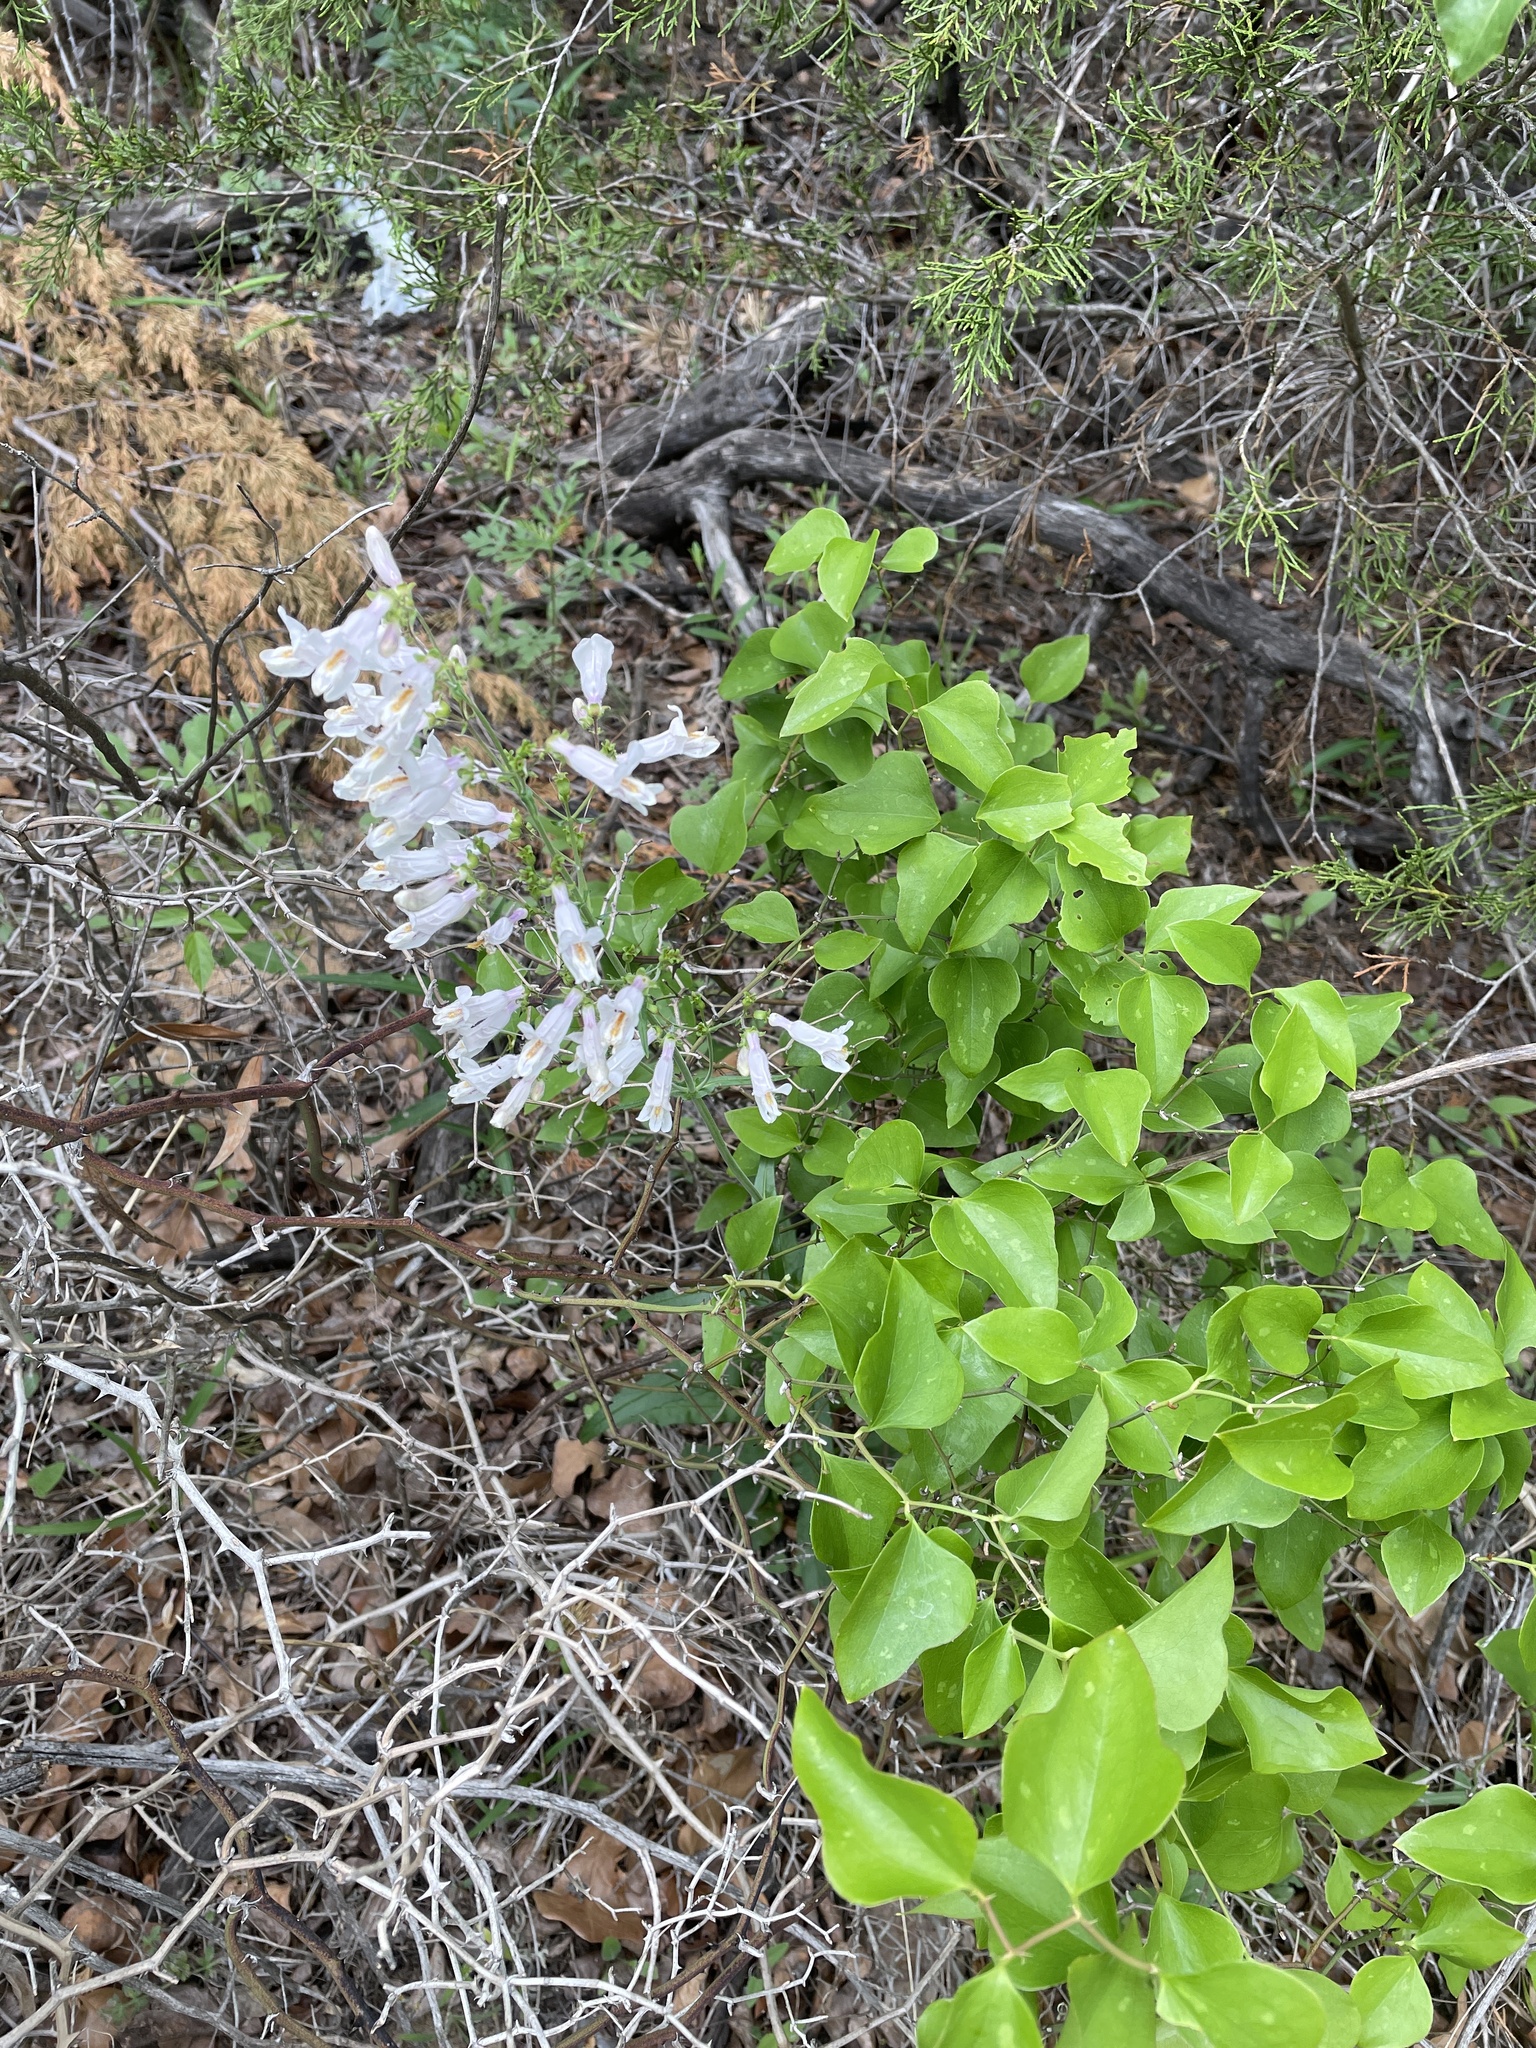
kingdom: Plantae
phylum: Tracheophyta
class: Magnoliopsida
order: Lamiales
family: Plantaginaceae
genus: Penstemon
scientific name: Penstemon laxiflorus
